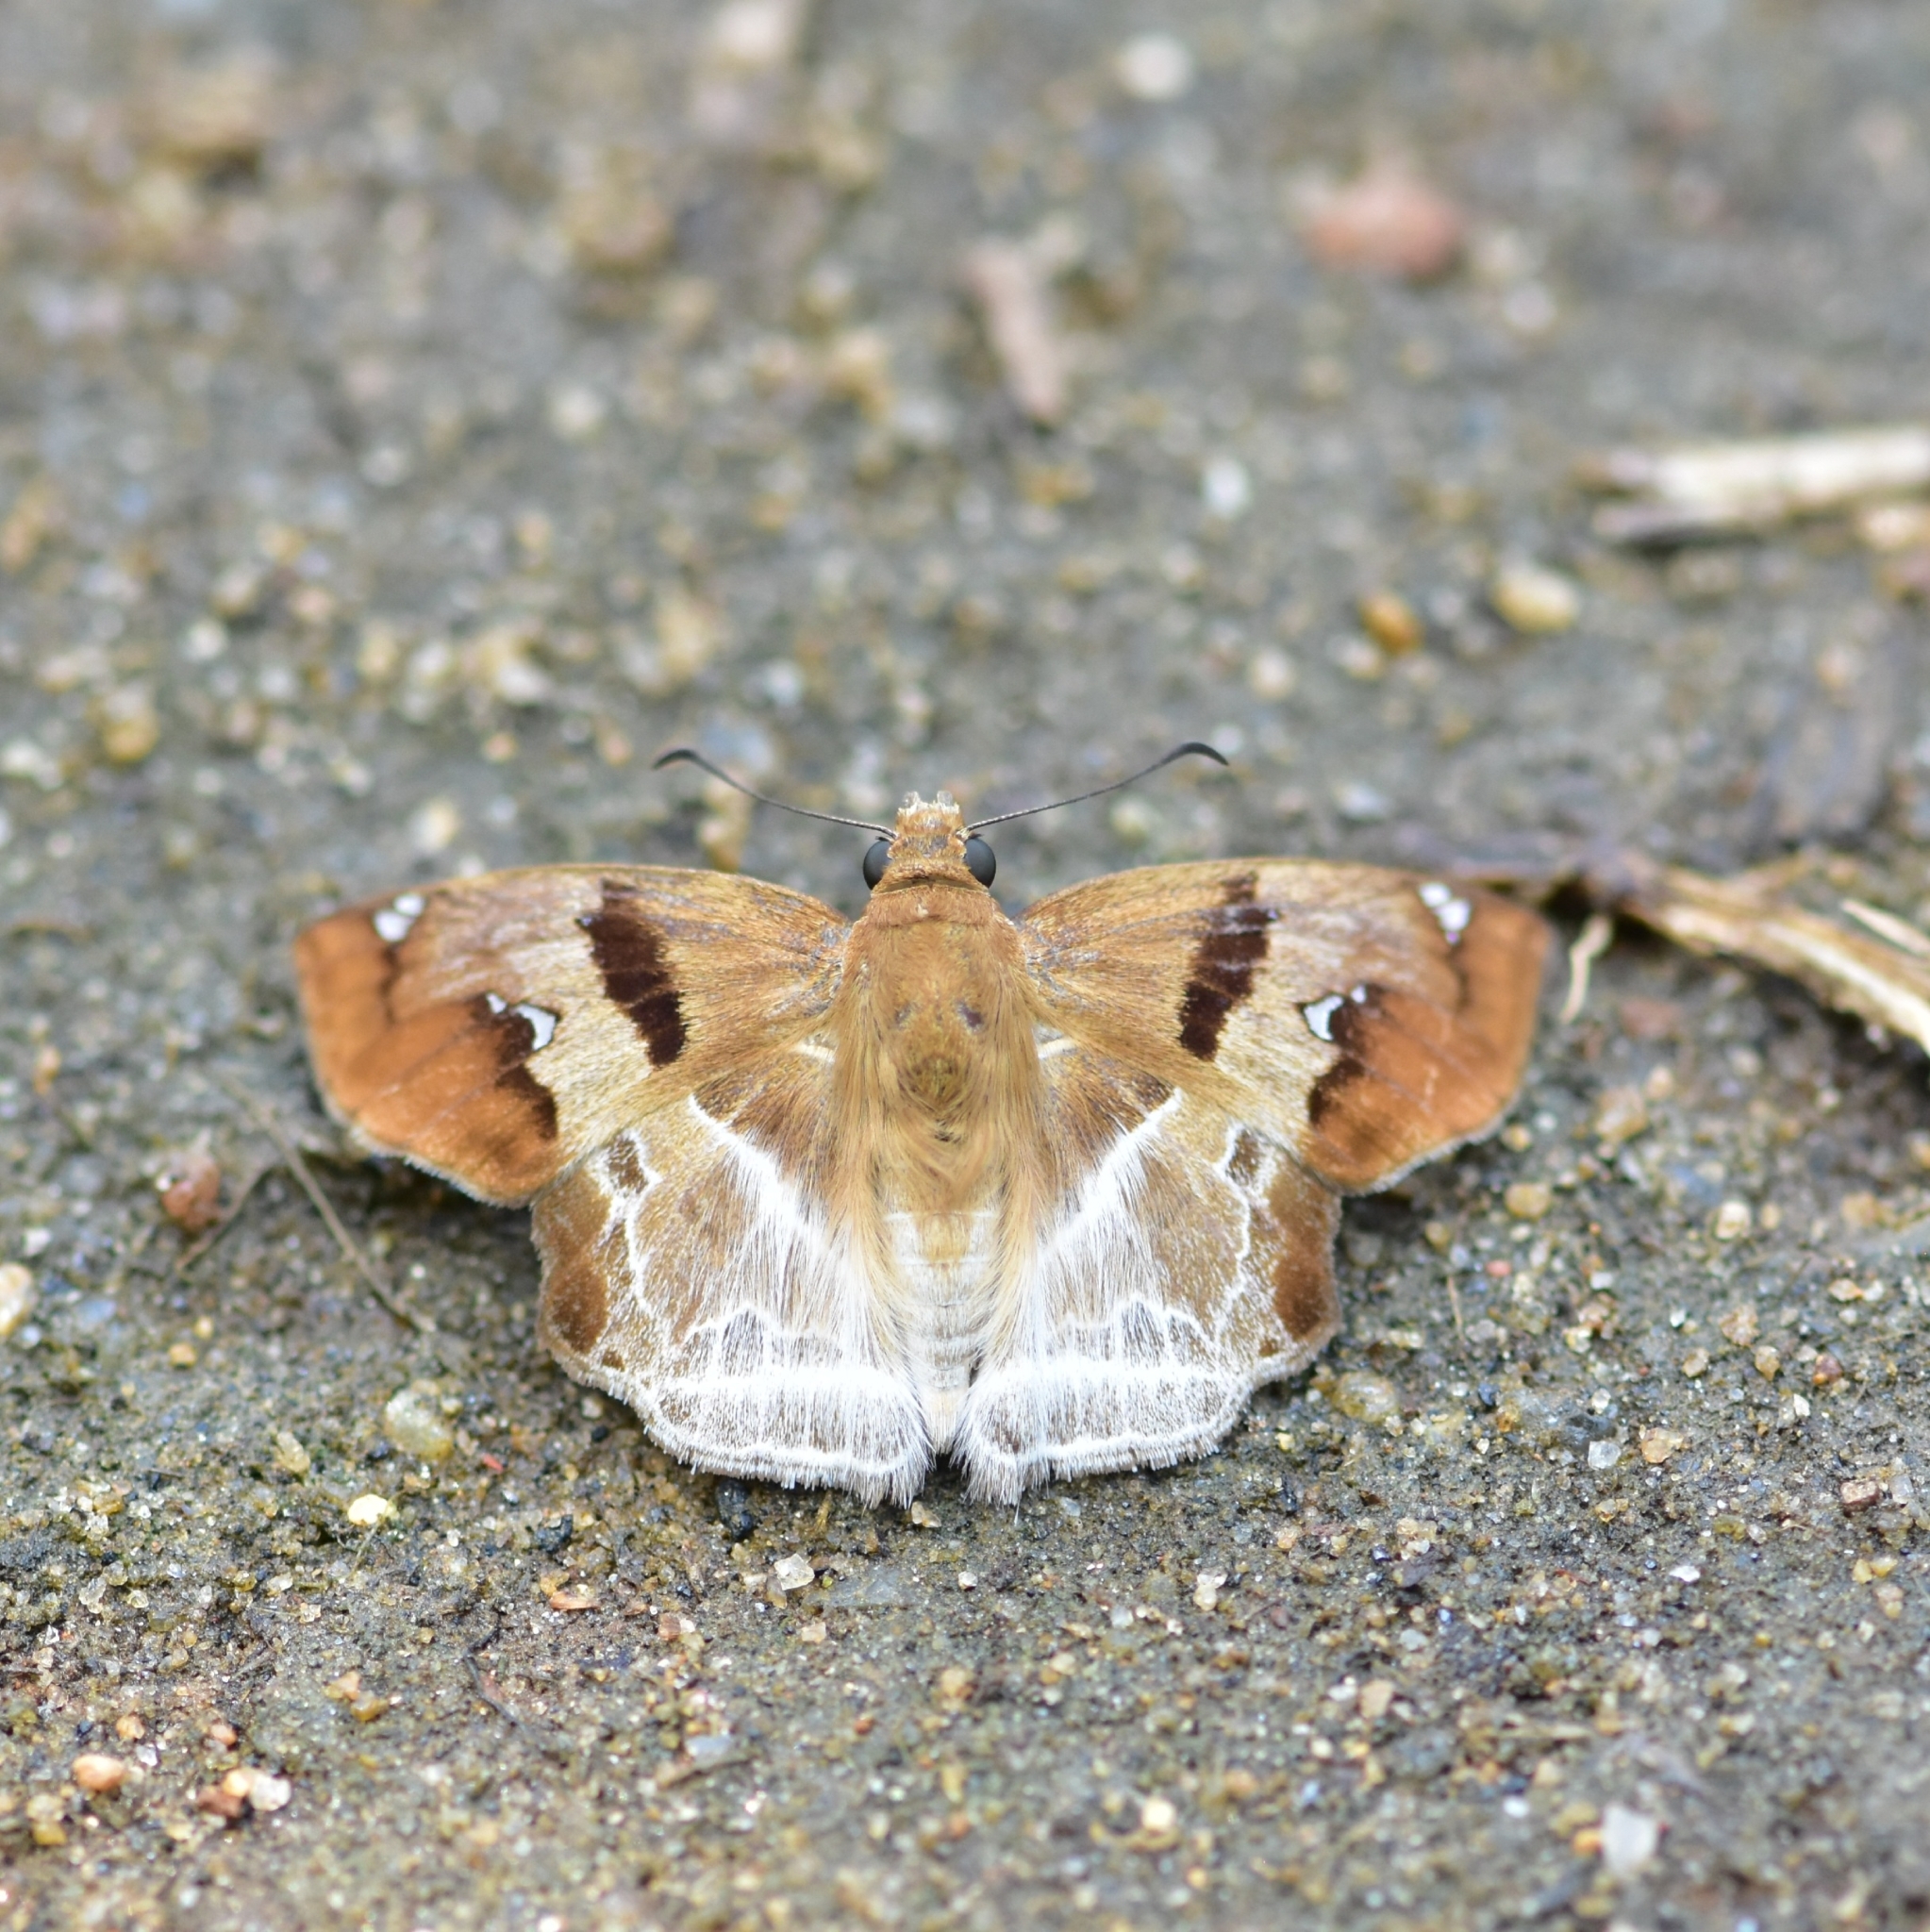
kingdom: Animalia
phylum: Arthropoda
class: Insecta
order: Lepidoptera
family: Hesperiidae
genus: Odontoptilum
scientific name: Odontoptilum angulata
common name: Chestnut banded angle
